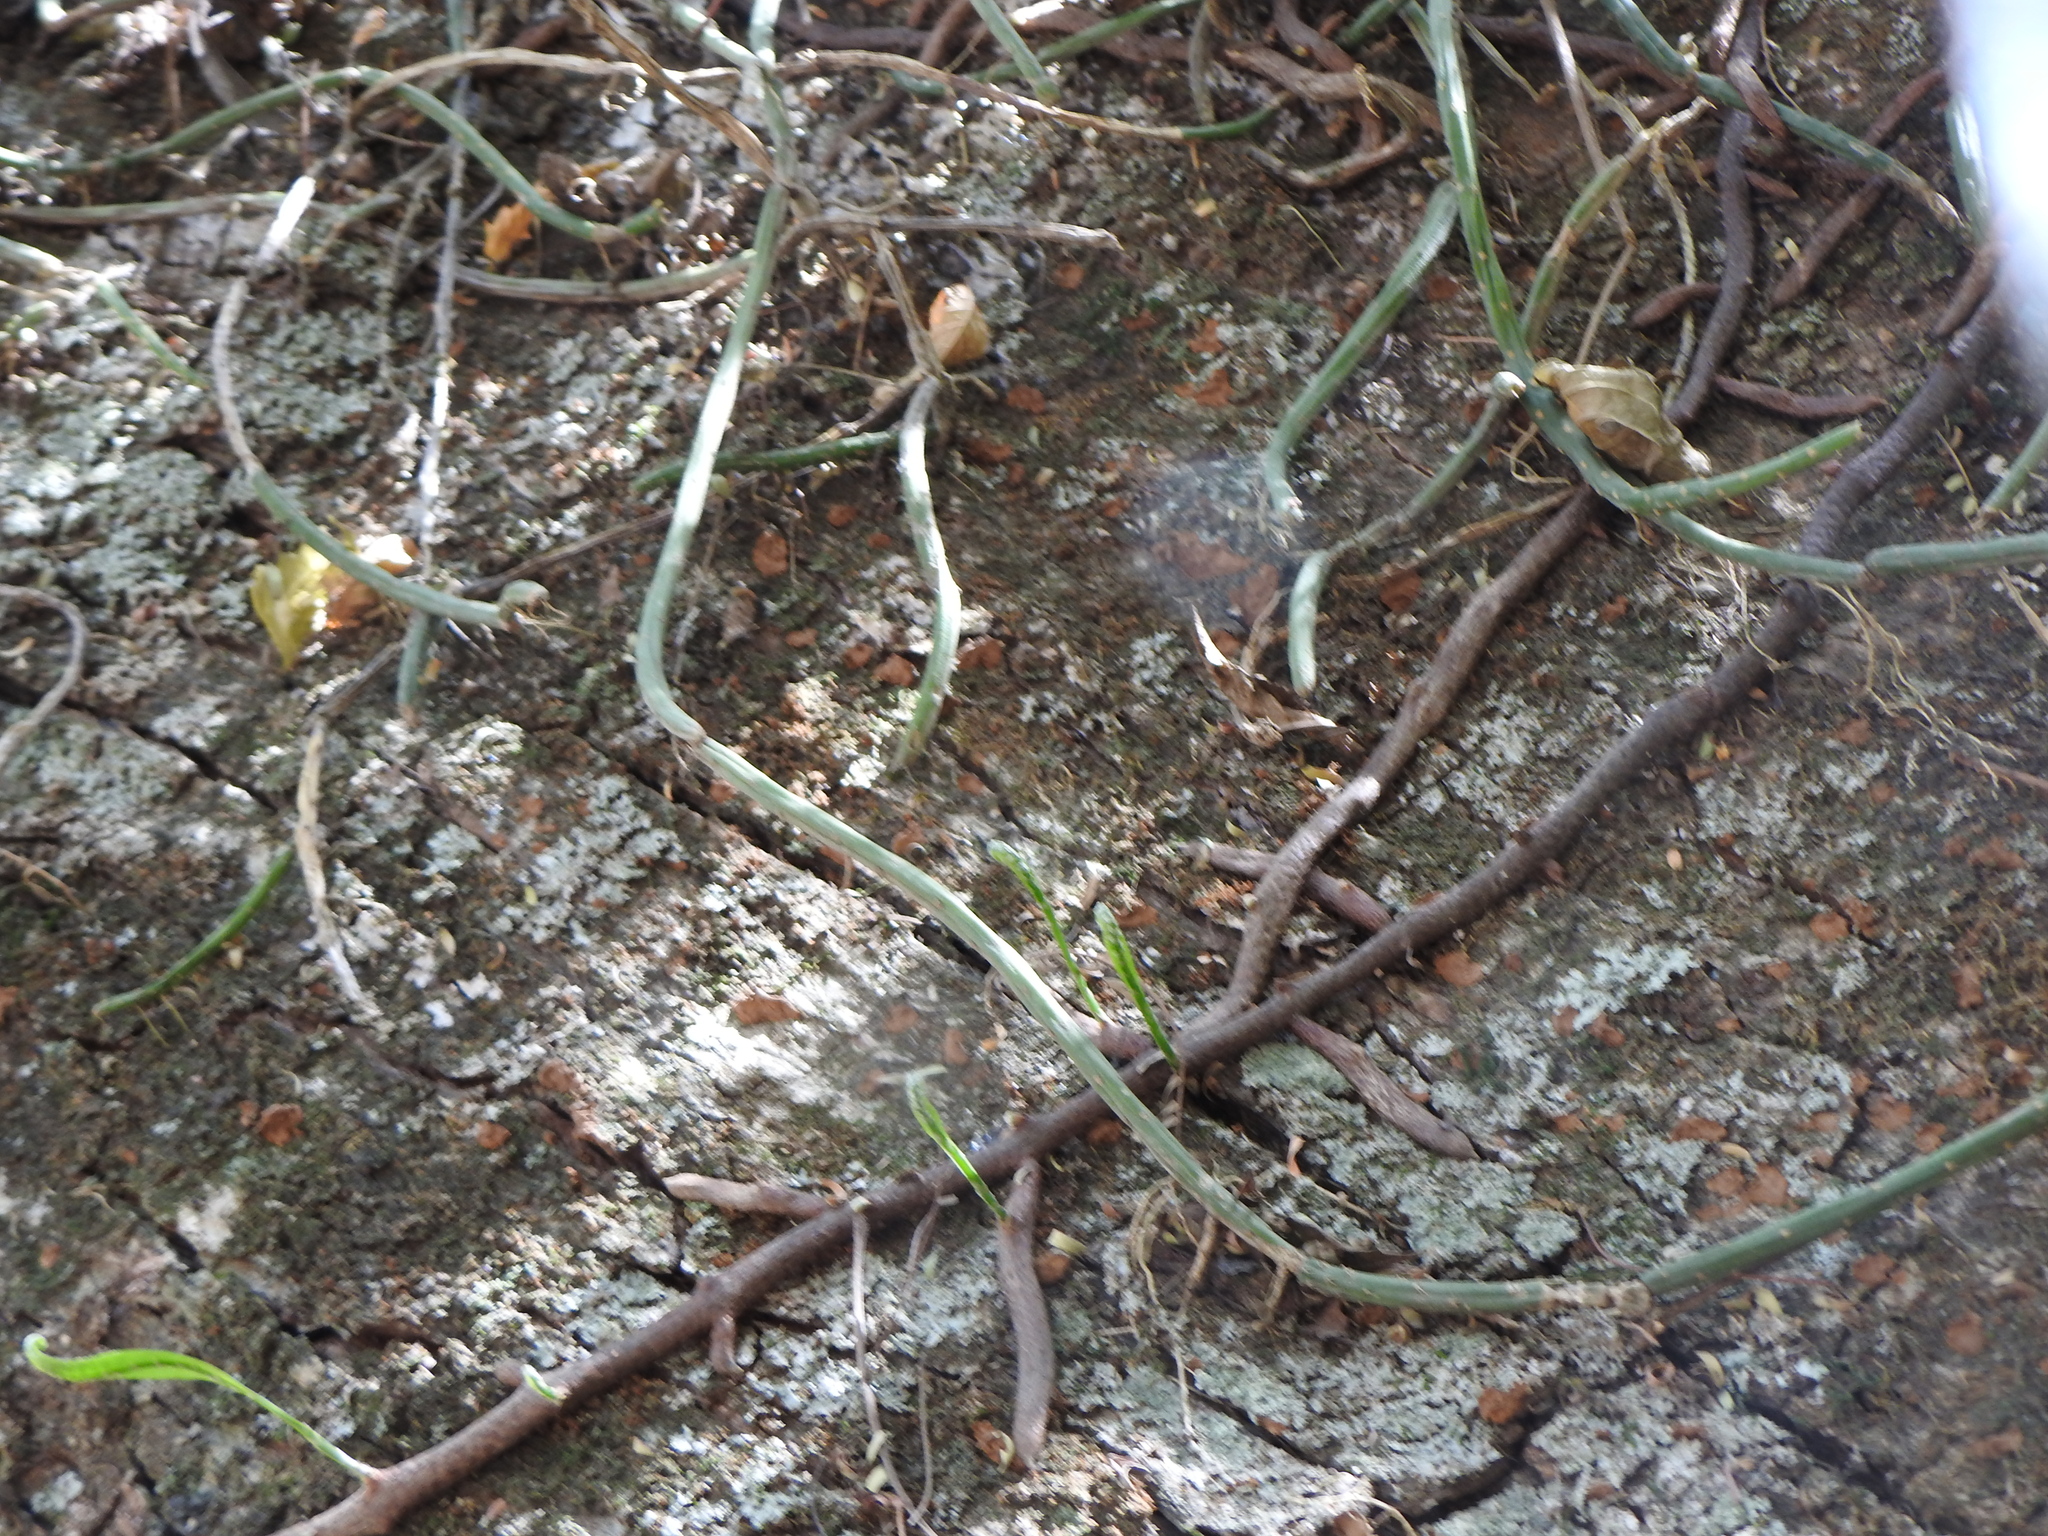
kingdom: Plantae
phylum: Tracheophyta
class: Magnoliopsida
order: Caryophyllales
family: Cactaceae
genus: Lepismium
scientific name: Lepismium lumbricoides
